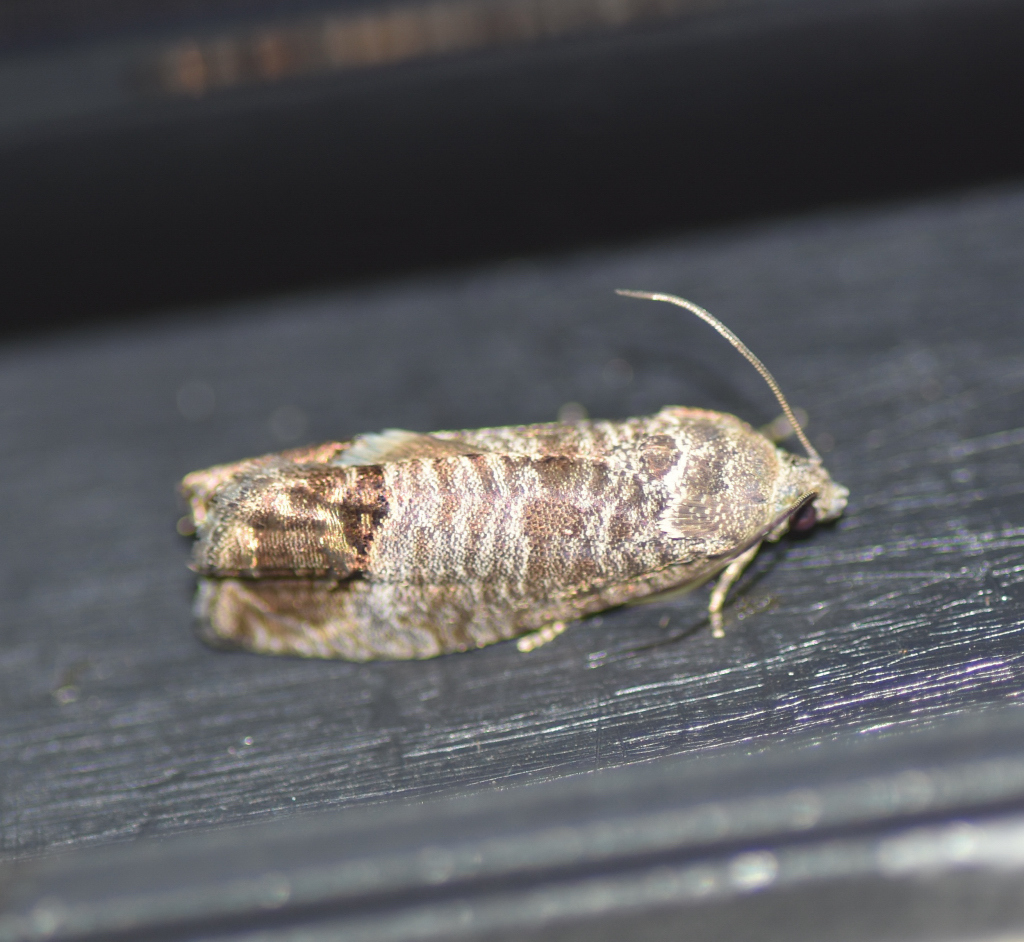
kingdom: Animalia
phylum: Arthropoda
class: Insecta
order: Lepidoptera
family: Tortricidae
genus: Cydia
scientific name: Cydia pomonella
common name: Codling moth
